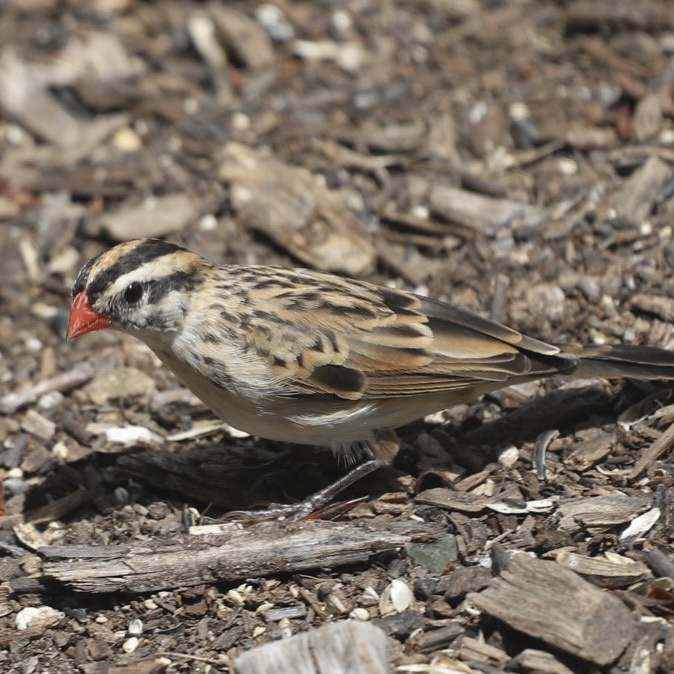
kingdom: Animalia
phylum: Chordata
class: Aves
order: Passeriformes
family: Viduidae
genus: Vidua
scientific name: Vidua macroura
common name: Pin-tailed whydah
